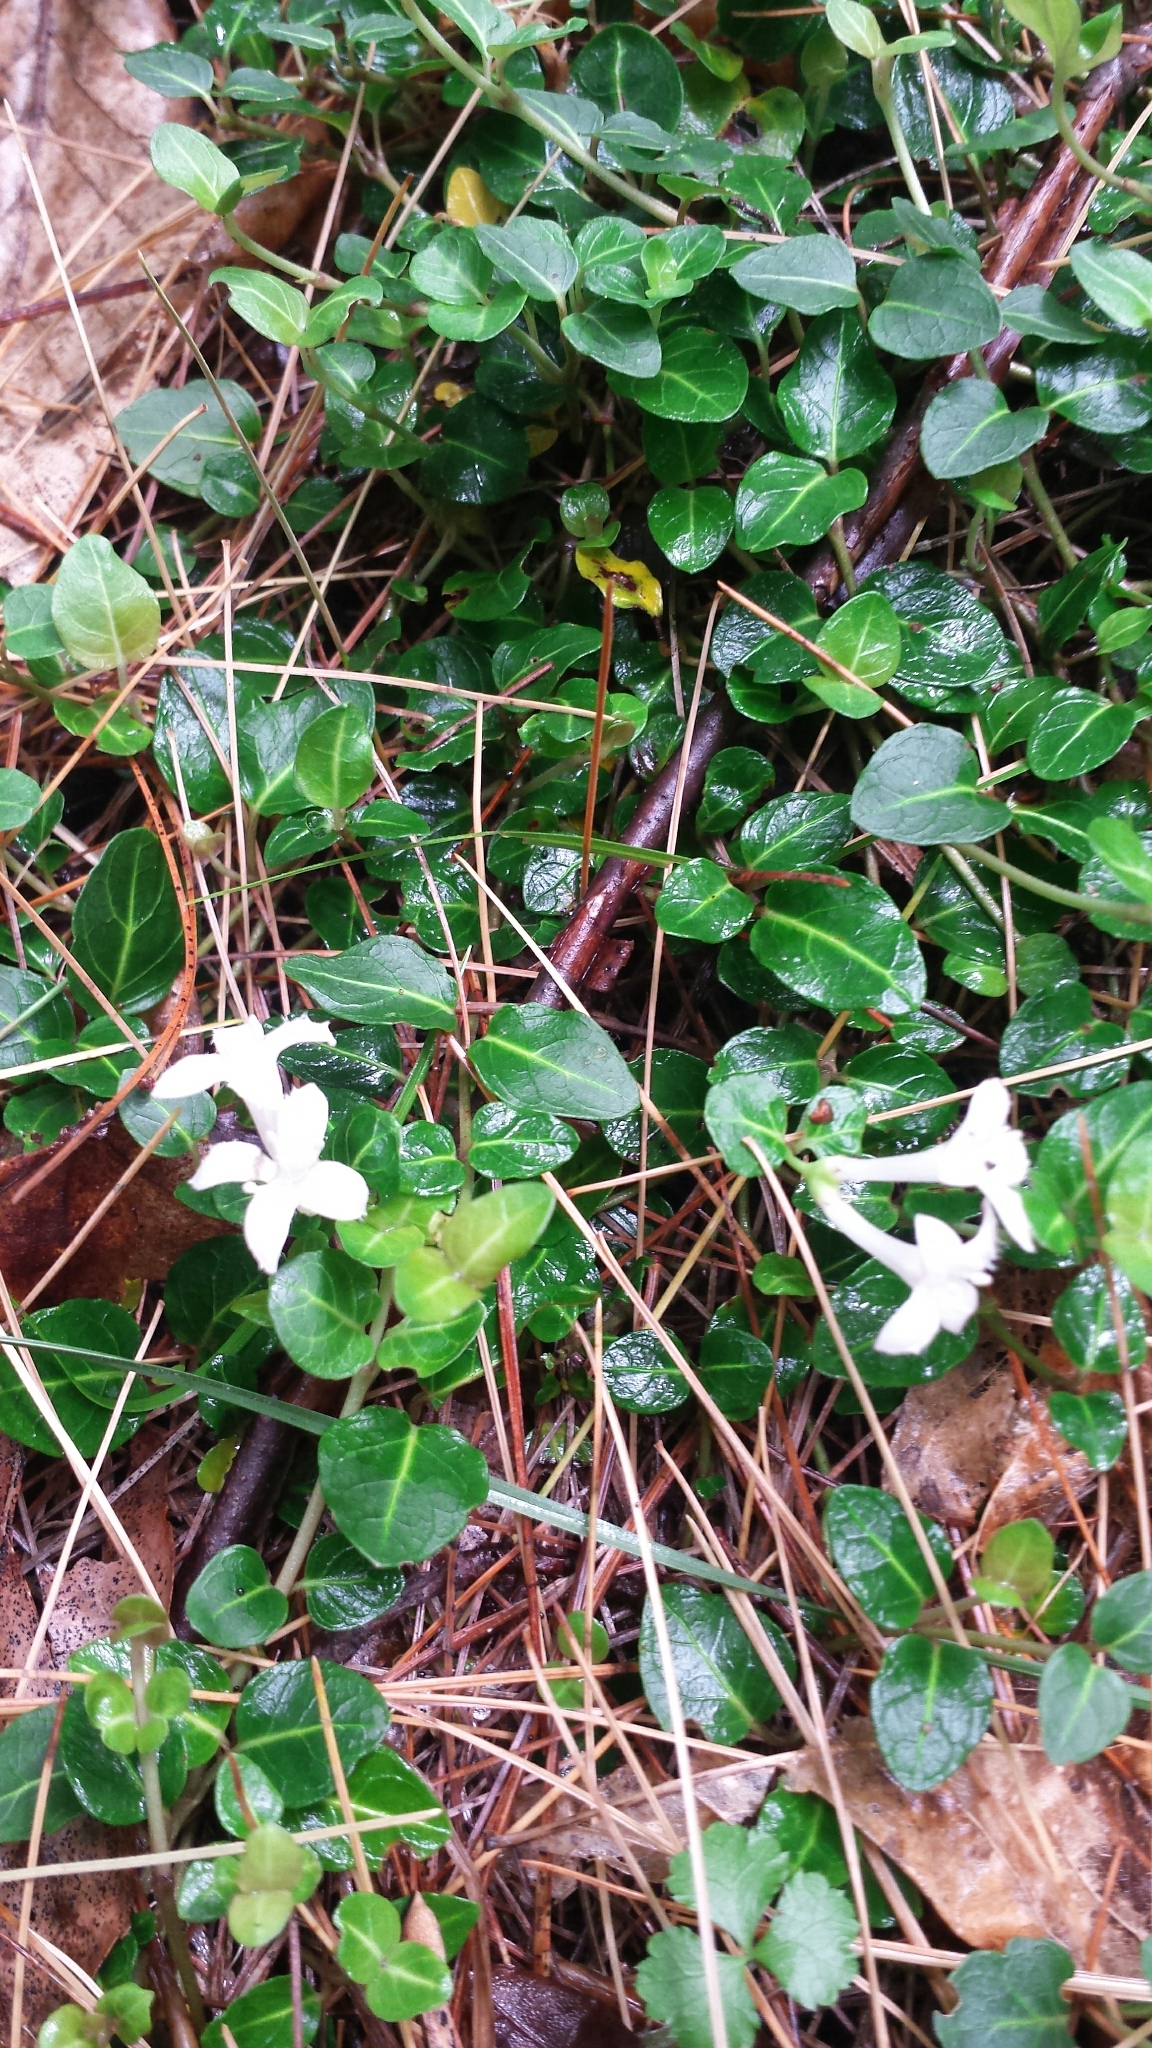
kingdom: Plantae
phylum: Tracheophyta
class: Magnoliopsida
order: Gentianales
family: Rubiaceae
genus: Mitchella
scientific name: Mitchella repens
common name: Partridge-berry
